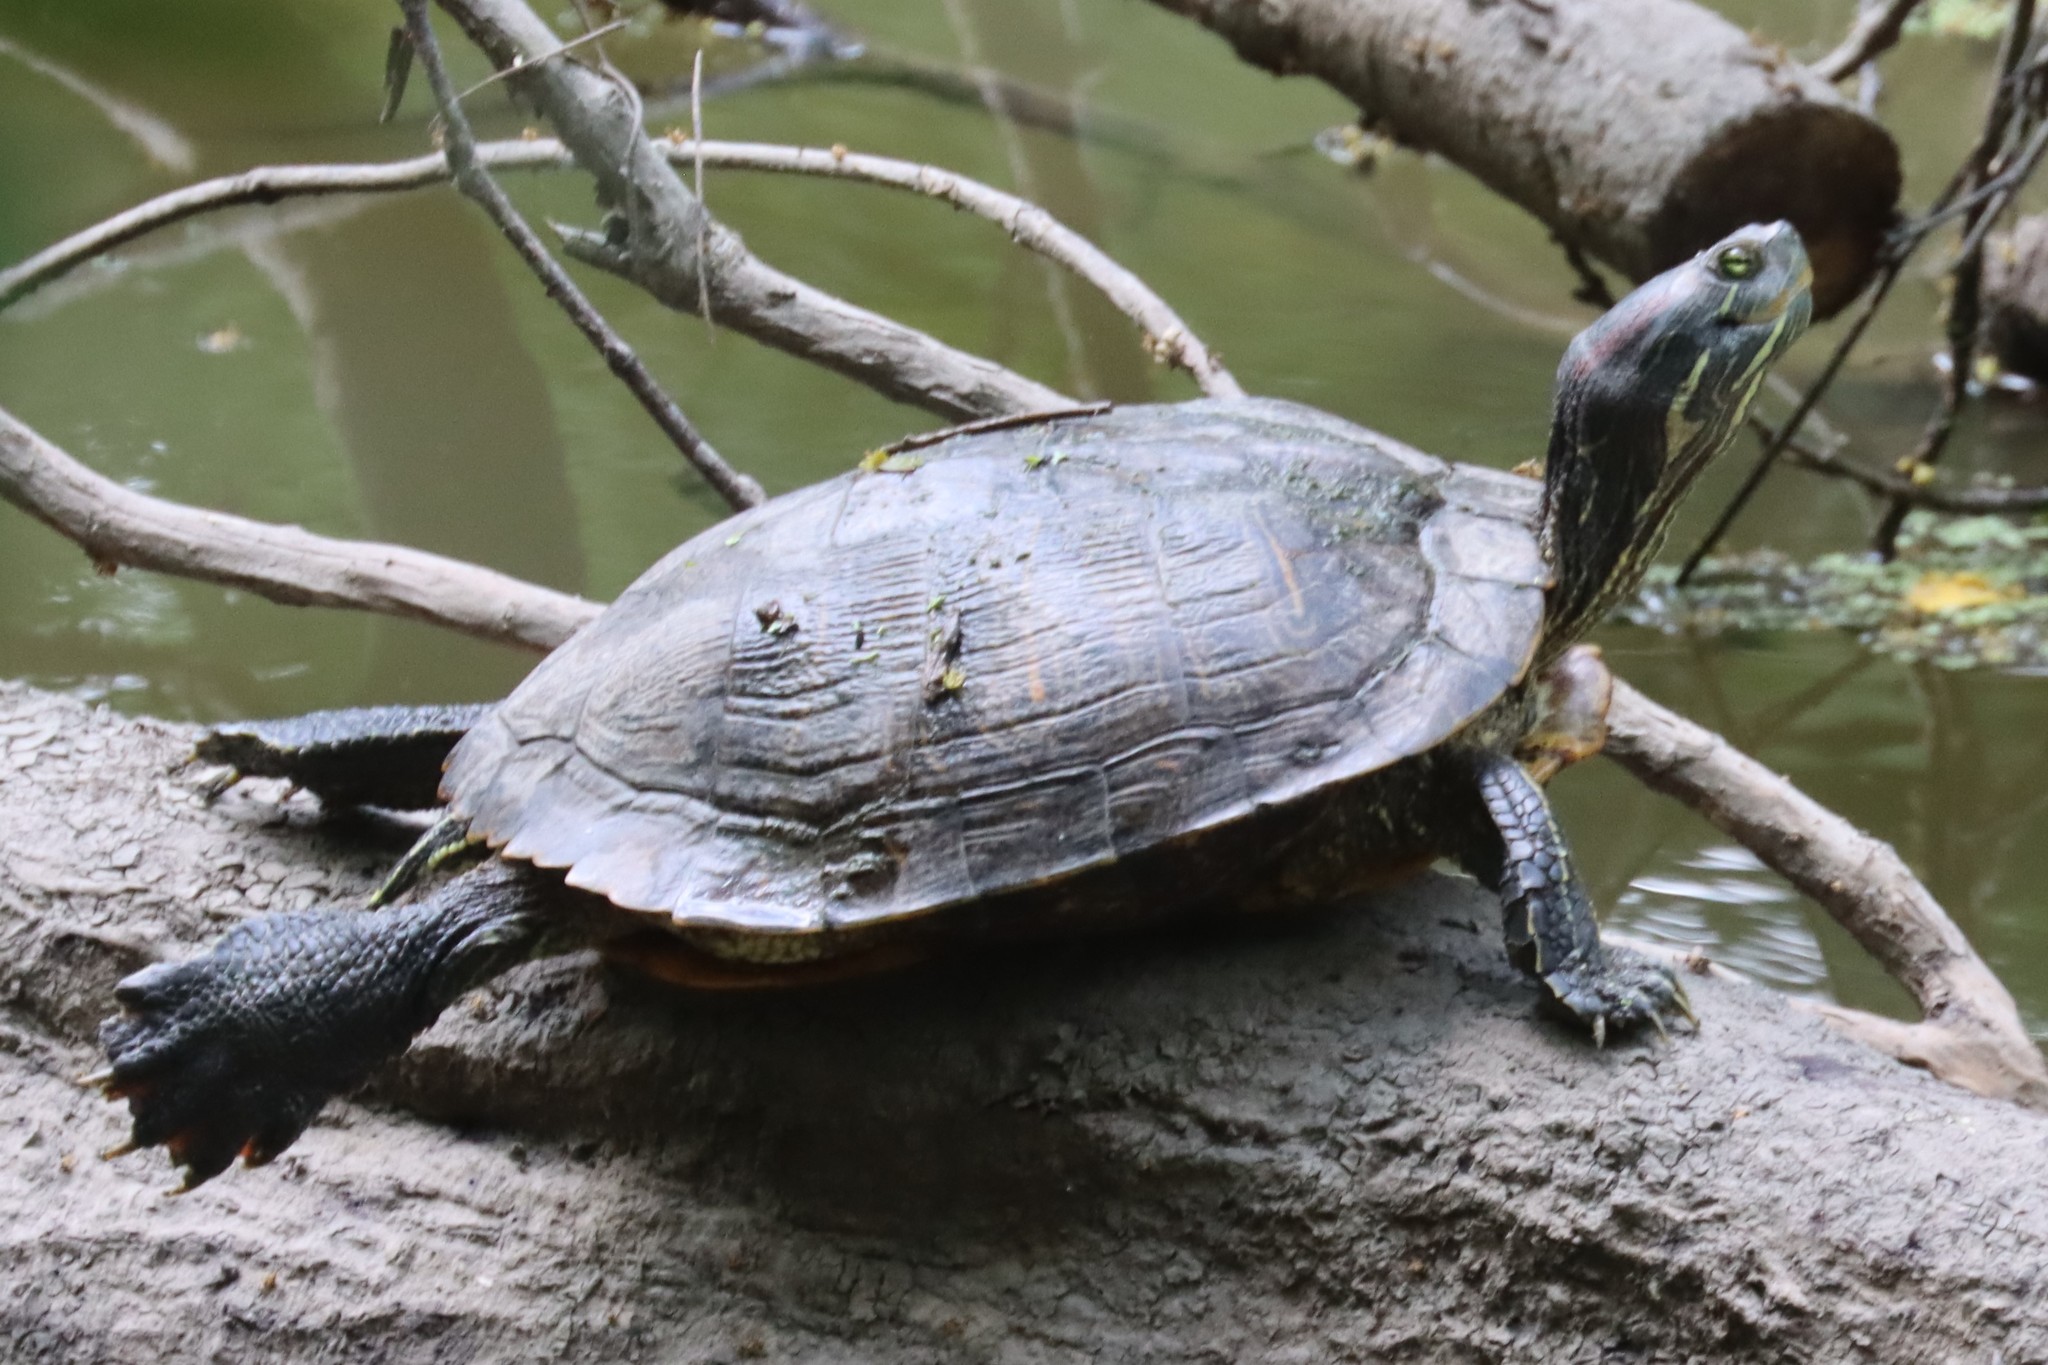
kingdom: Animalia
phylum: Chordata
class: Testudines
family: Emydidae
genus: Trachemys
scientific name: Trachemys scripta
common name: Slider
